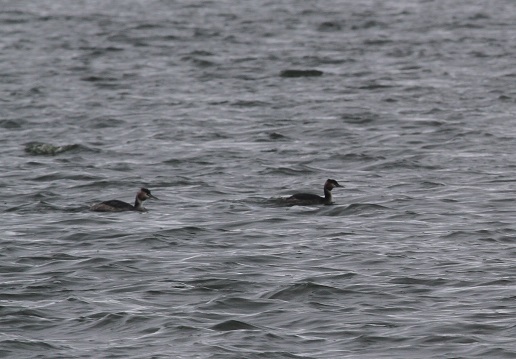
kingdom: Animalia
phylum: Chordata
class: Aves
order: Podicipediformes
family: Podicipedidae
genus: Podiceps
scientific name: Podiceps cristatus
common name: Great crested grebe
